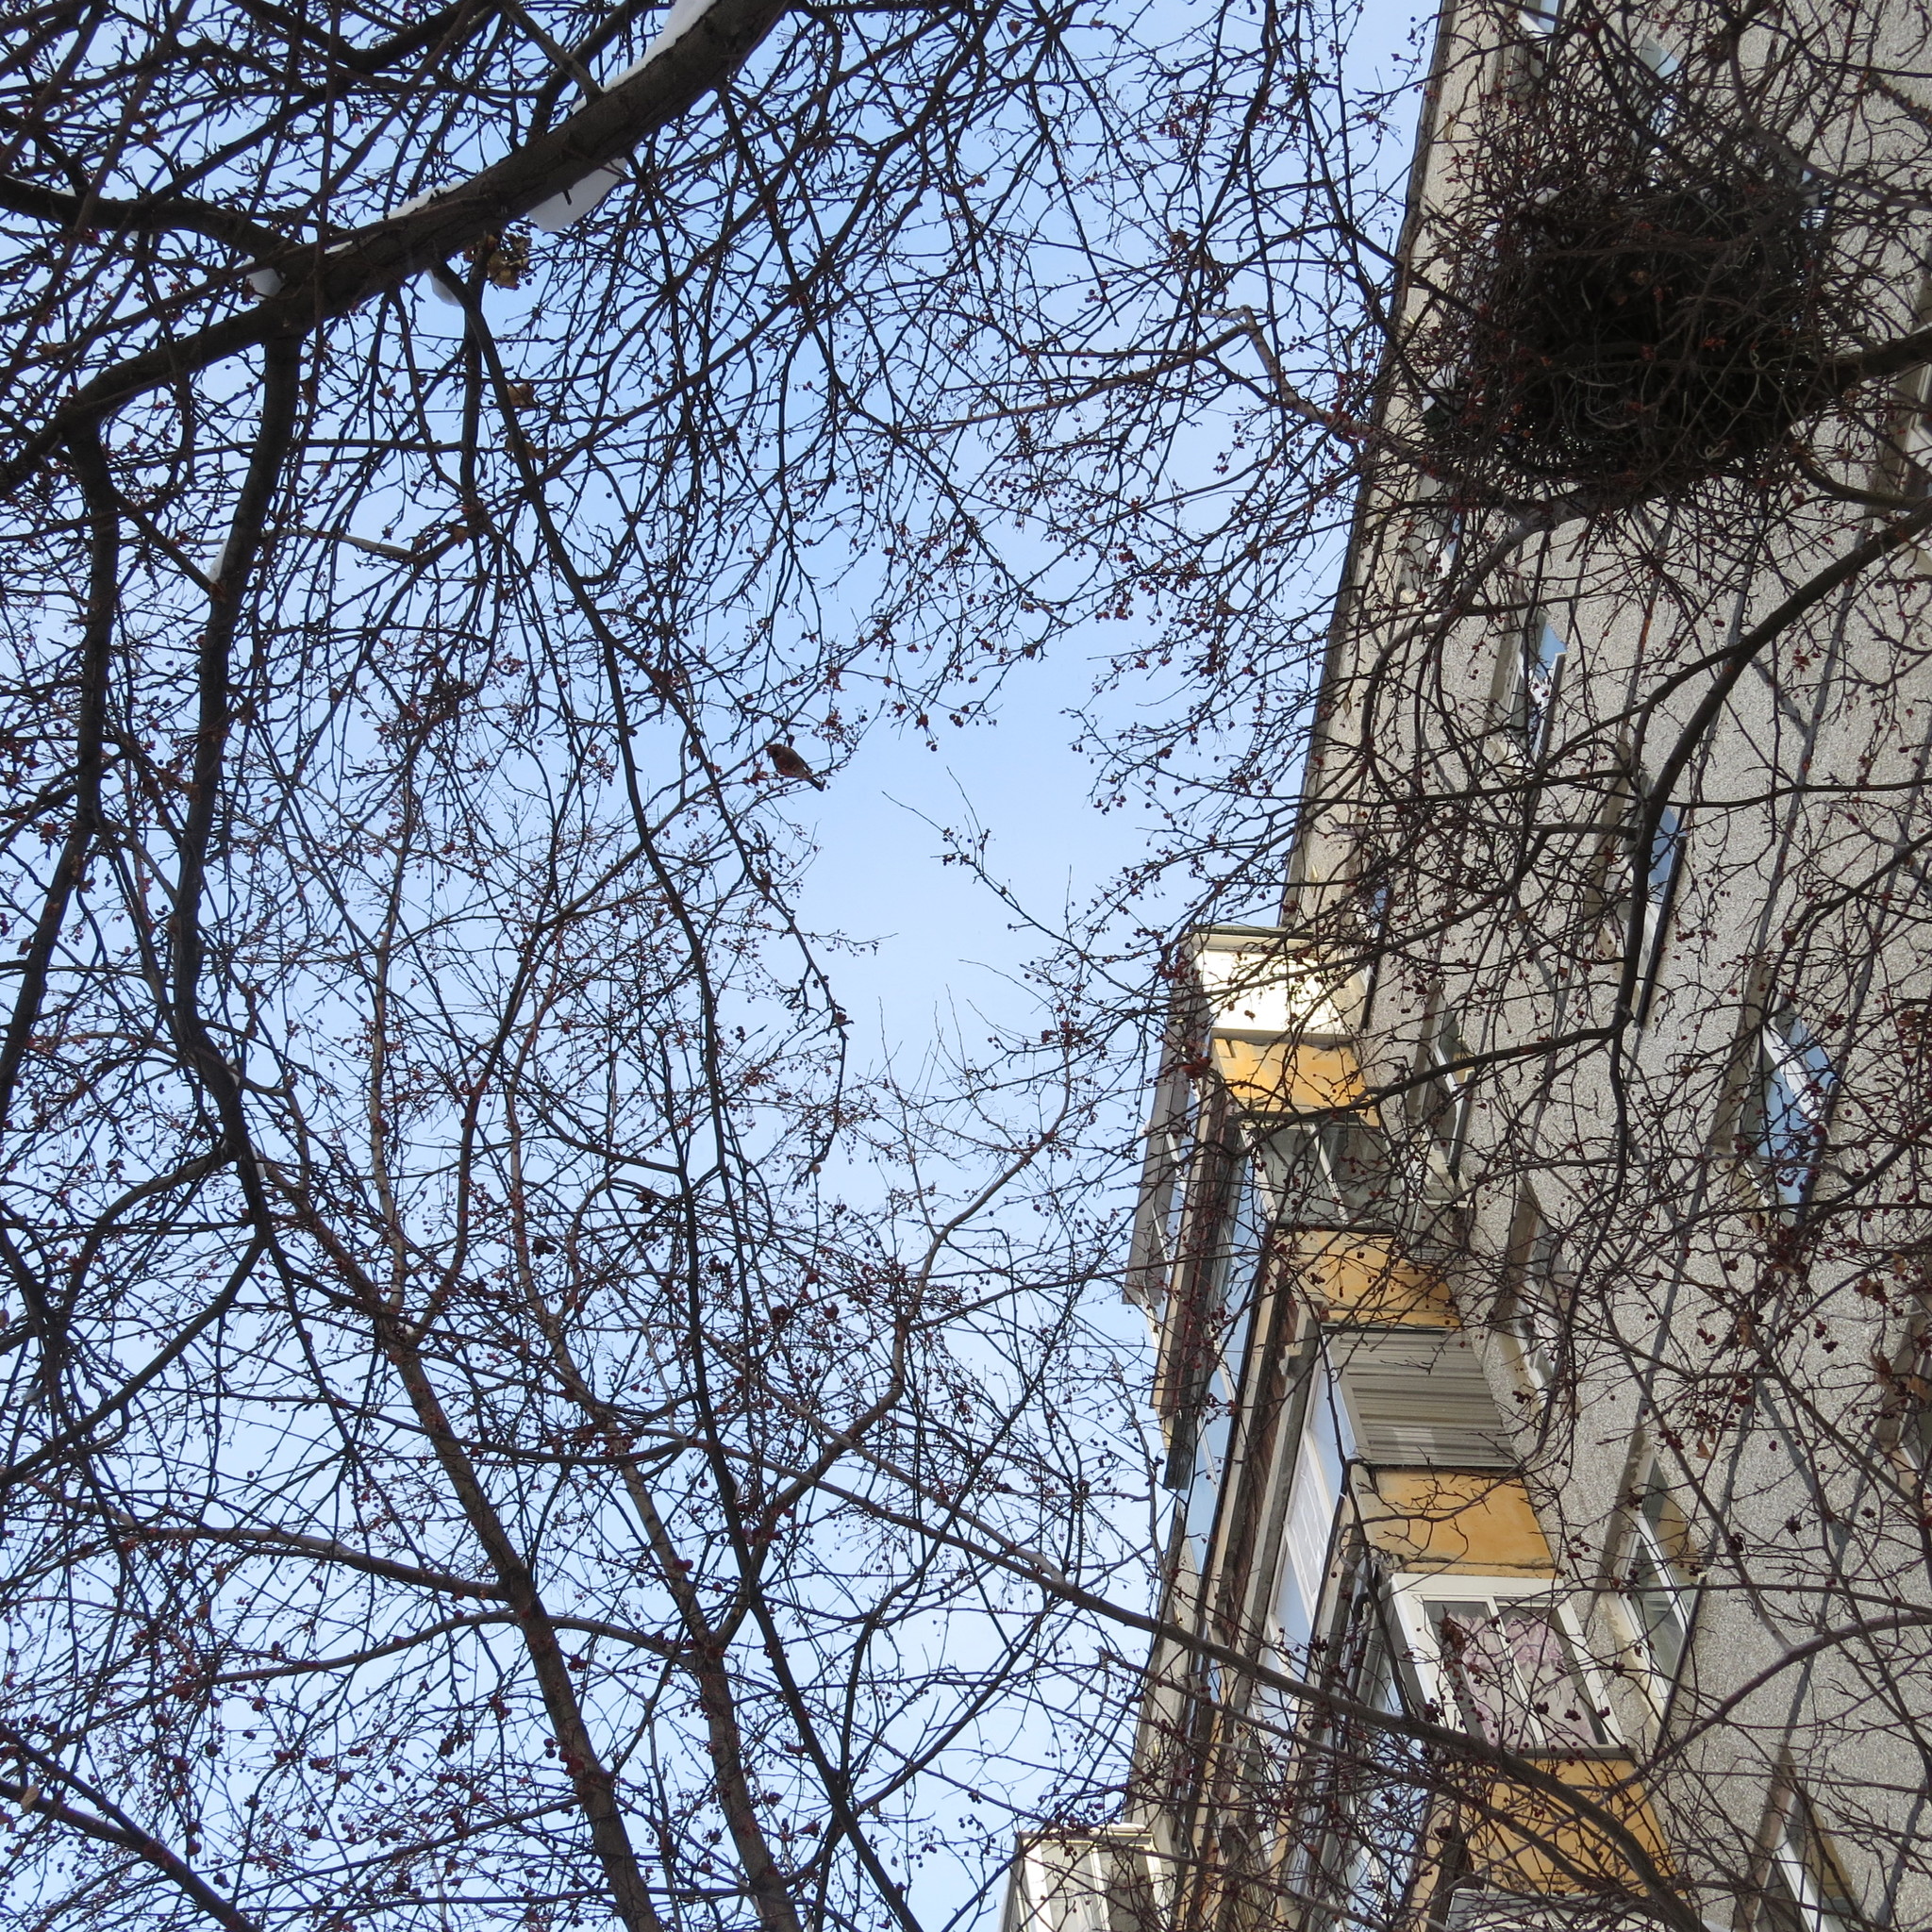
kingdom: Animalia
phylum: Chordata
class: Aves
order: Passeriformes
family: Corvidae
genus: Pica
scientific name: Pica pica
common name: Eurasian magpie
